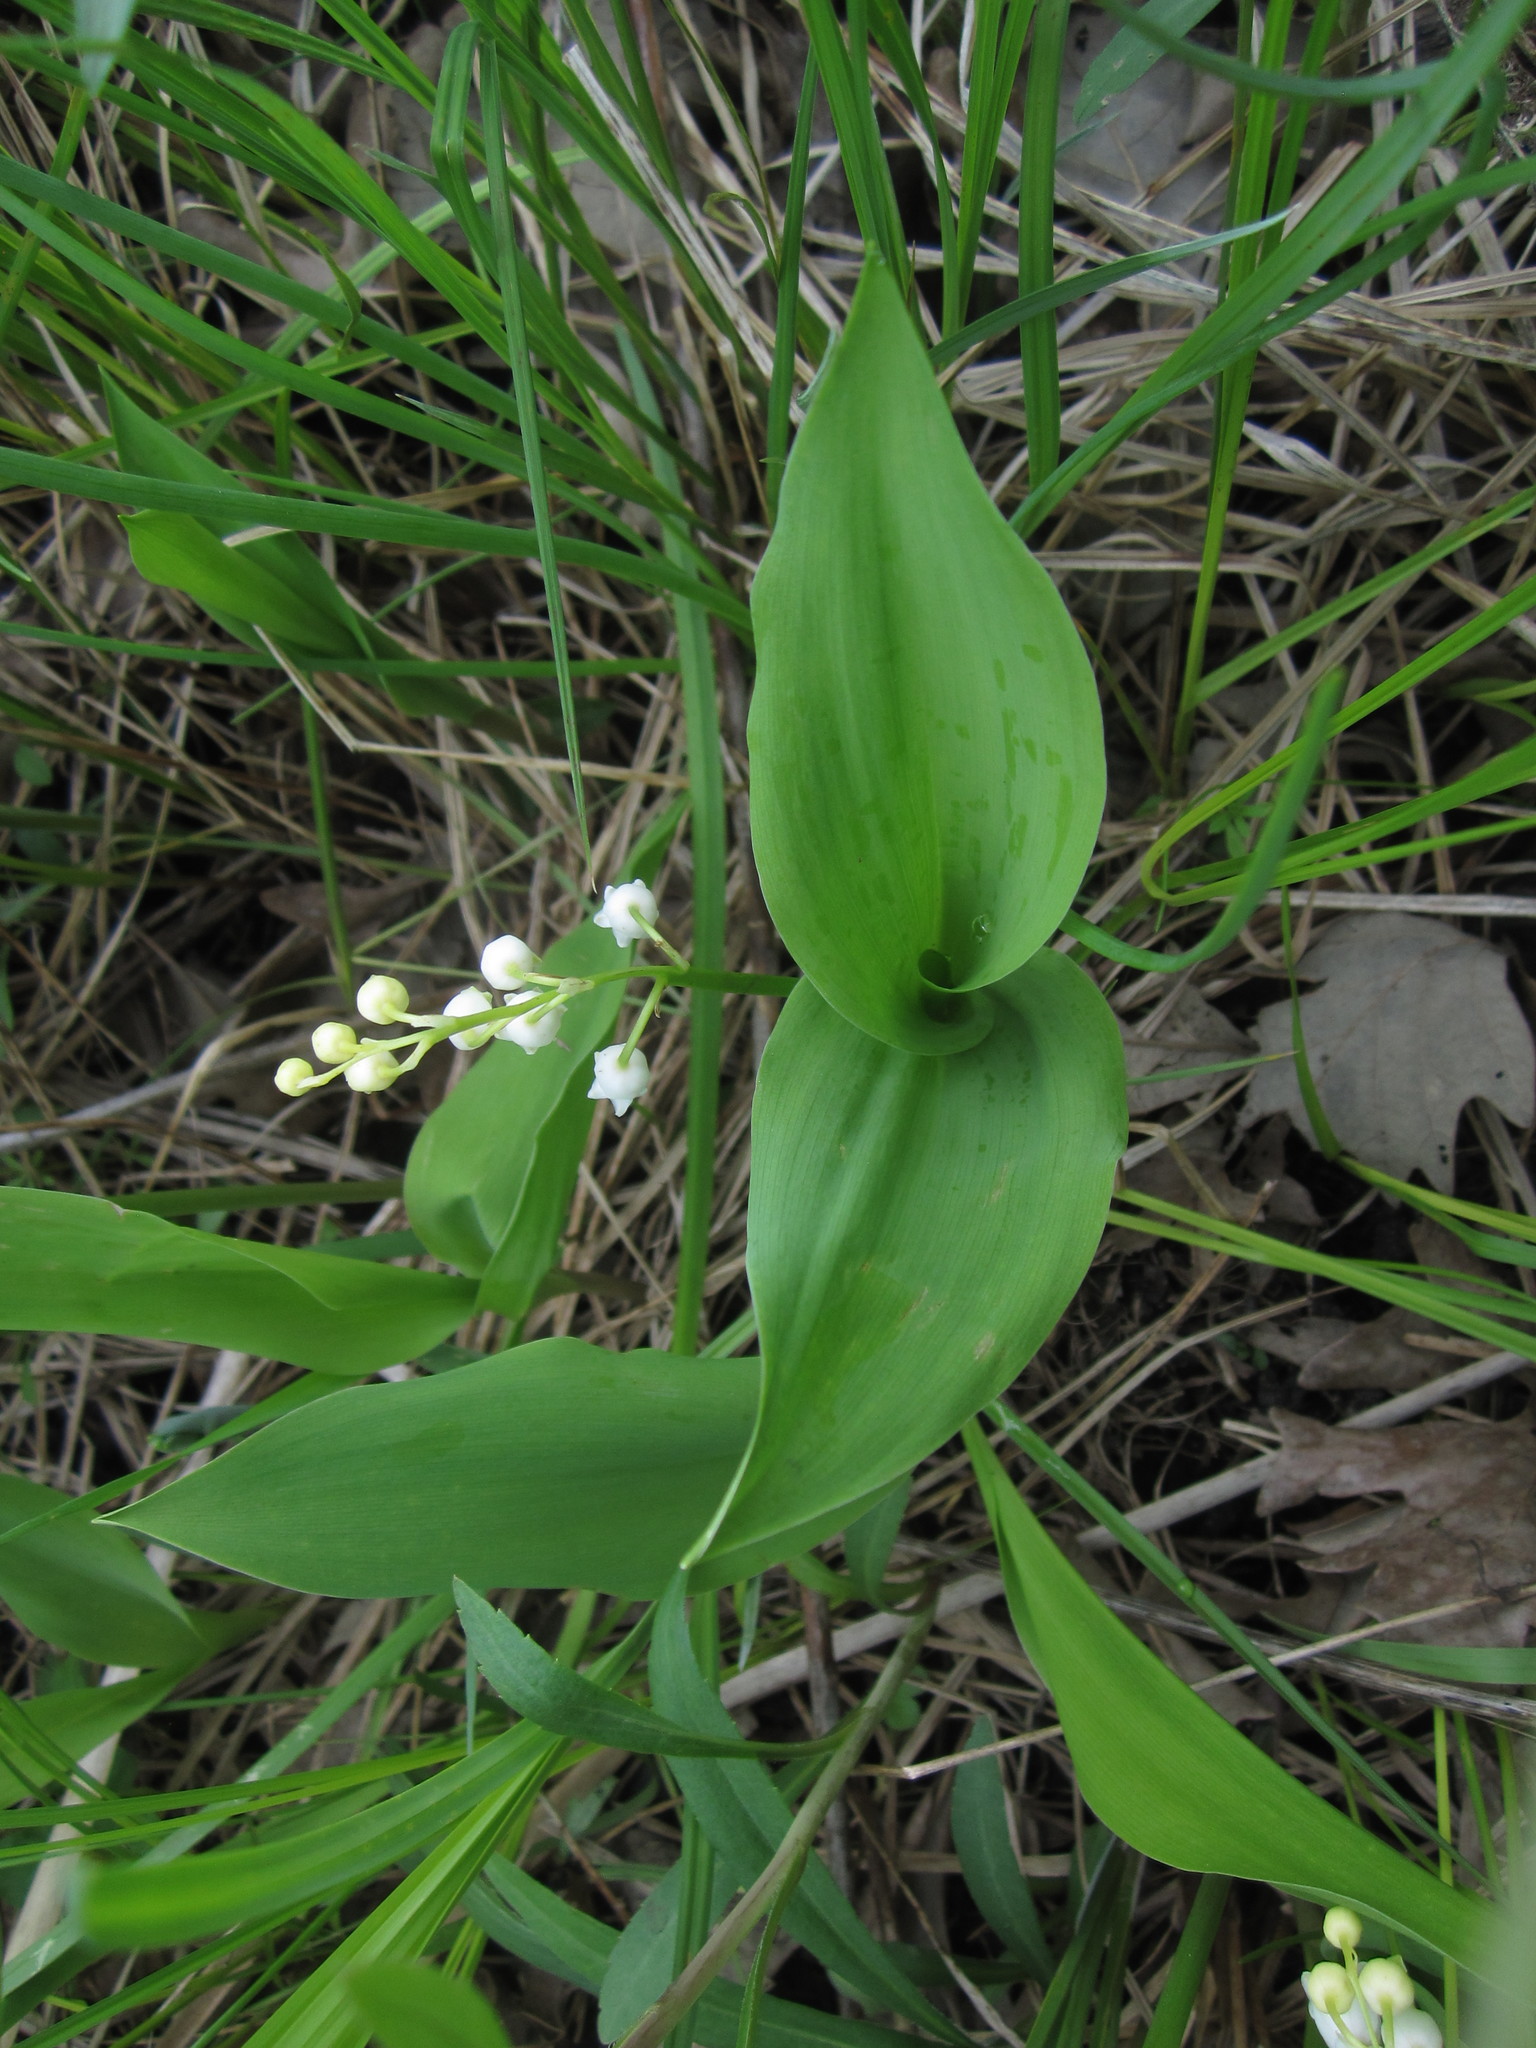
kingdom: Plantae
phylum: Tracheophyta
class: Liliopsida
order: Asparagales
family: Asparagaceae
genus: Convallaria
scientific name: Convallaria majalis
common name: Lily-of-the-valley
